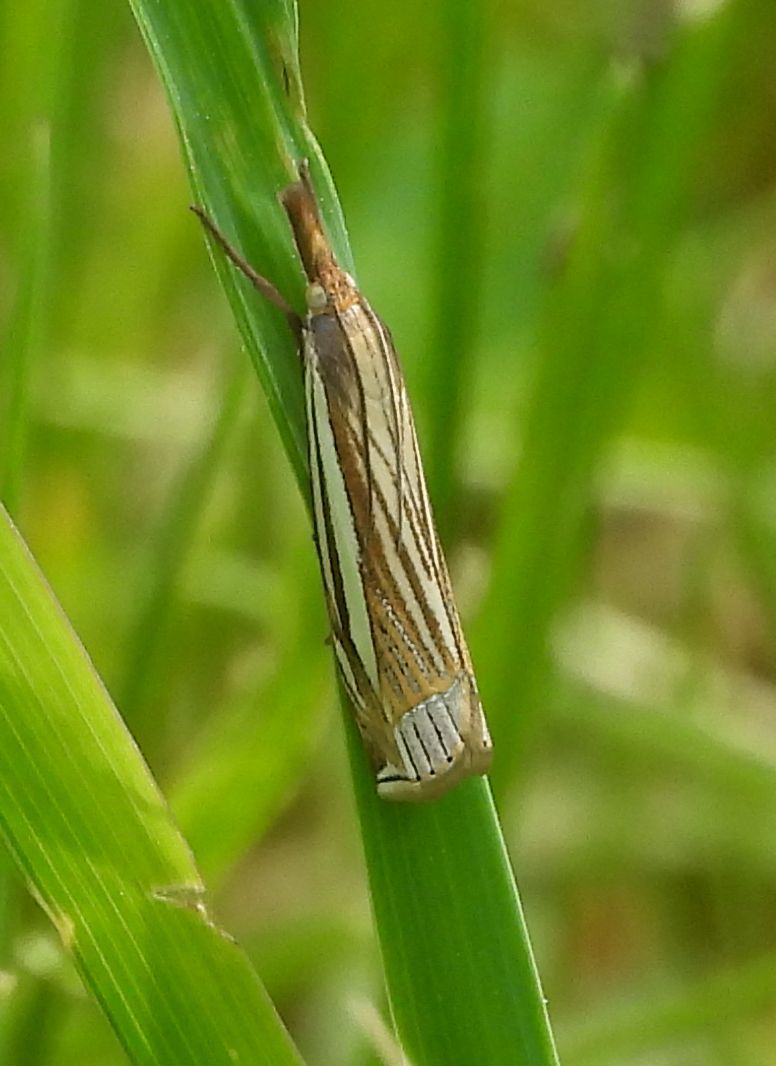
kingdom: Animalia
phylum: Arthropoda
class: Insecta
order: Lepidoptera
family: Crambidae
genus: Crambus
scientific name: Crambus laqueatellus
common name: Eastern grass-veneer
